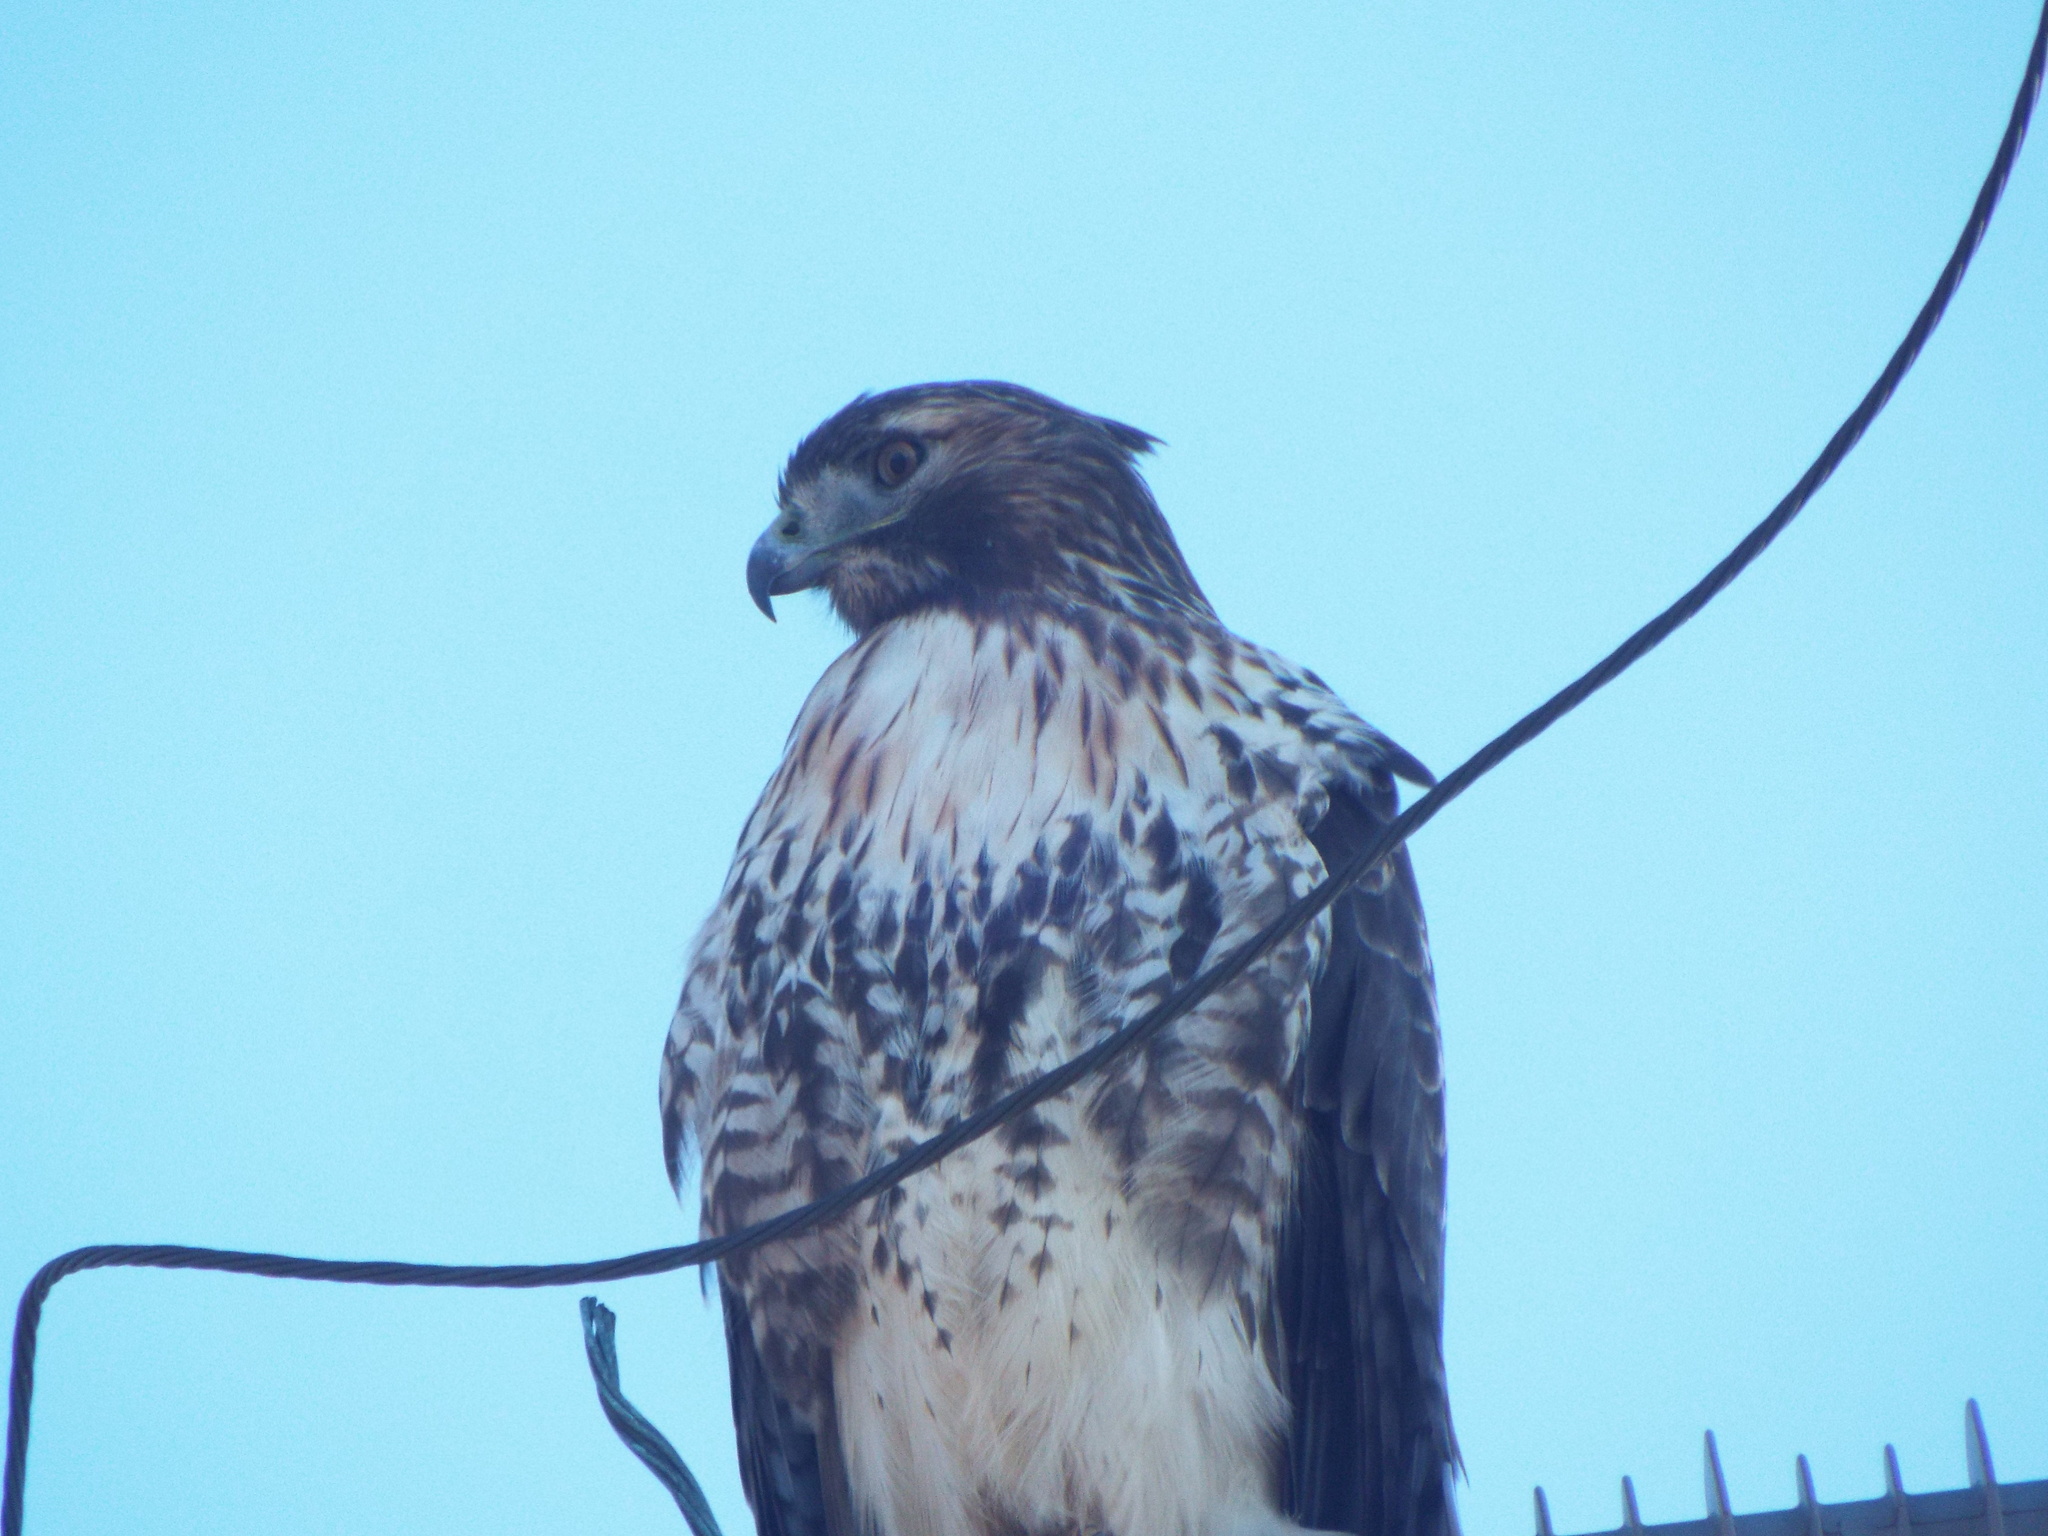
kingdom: Animalia
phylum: Chordata
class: Aves
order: Accipitriformes
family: Accipitridae
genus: Buteo
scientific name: Buteo jamaicensis
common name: Red-tailed hawk
